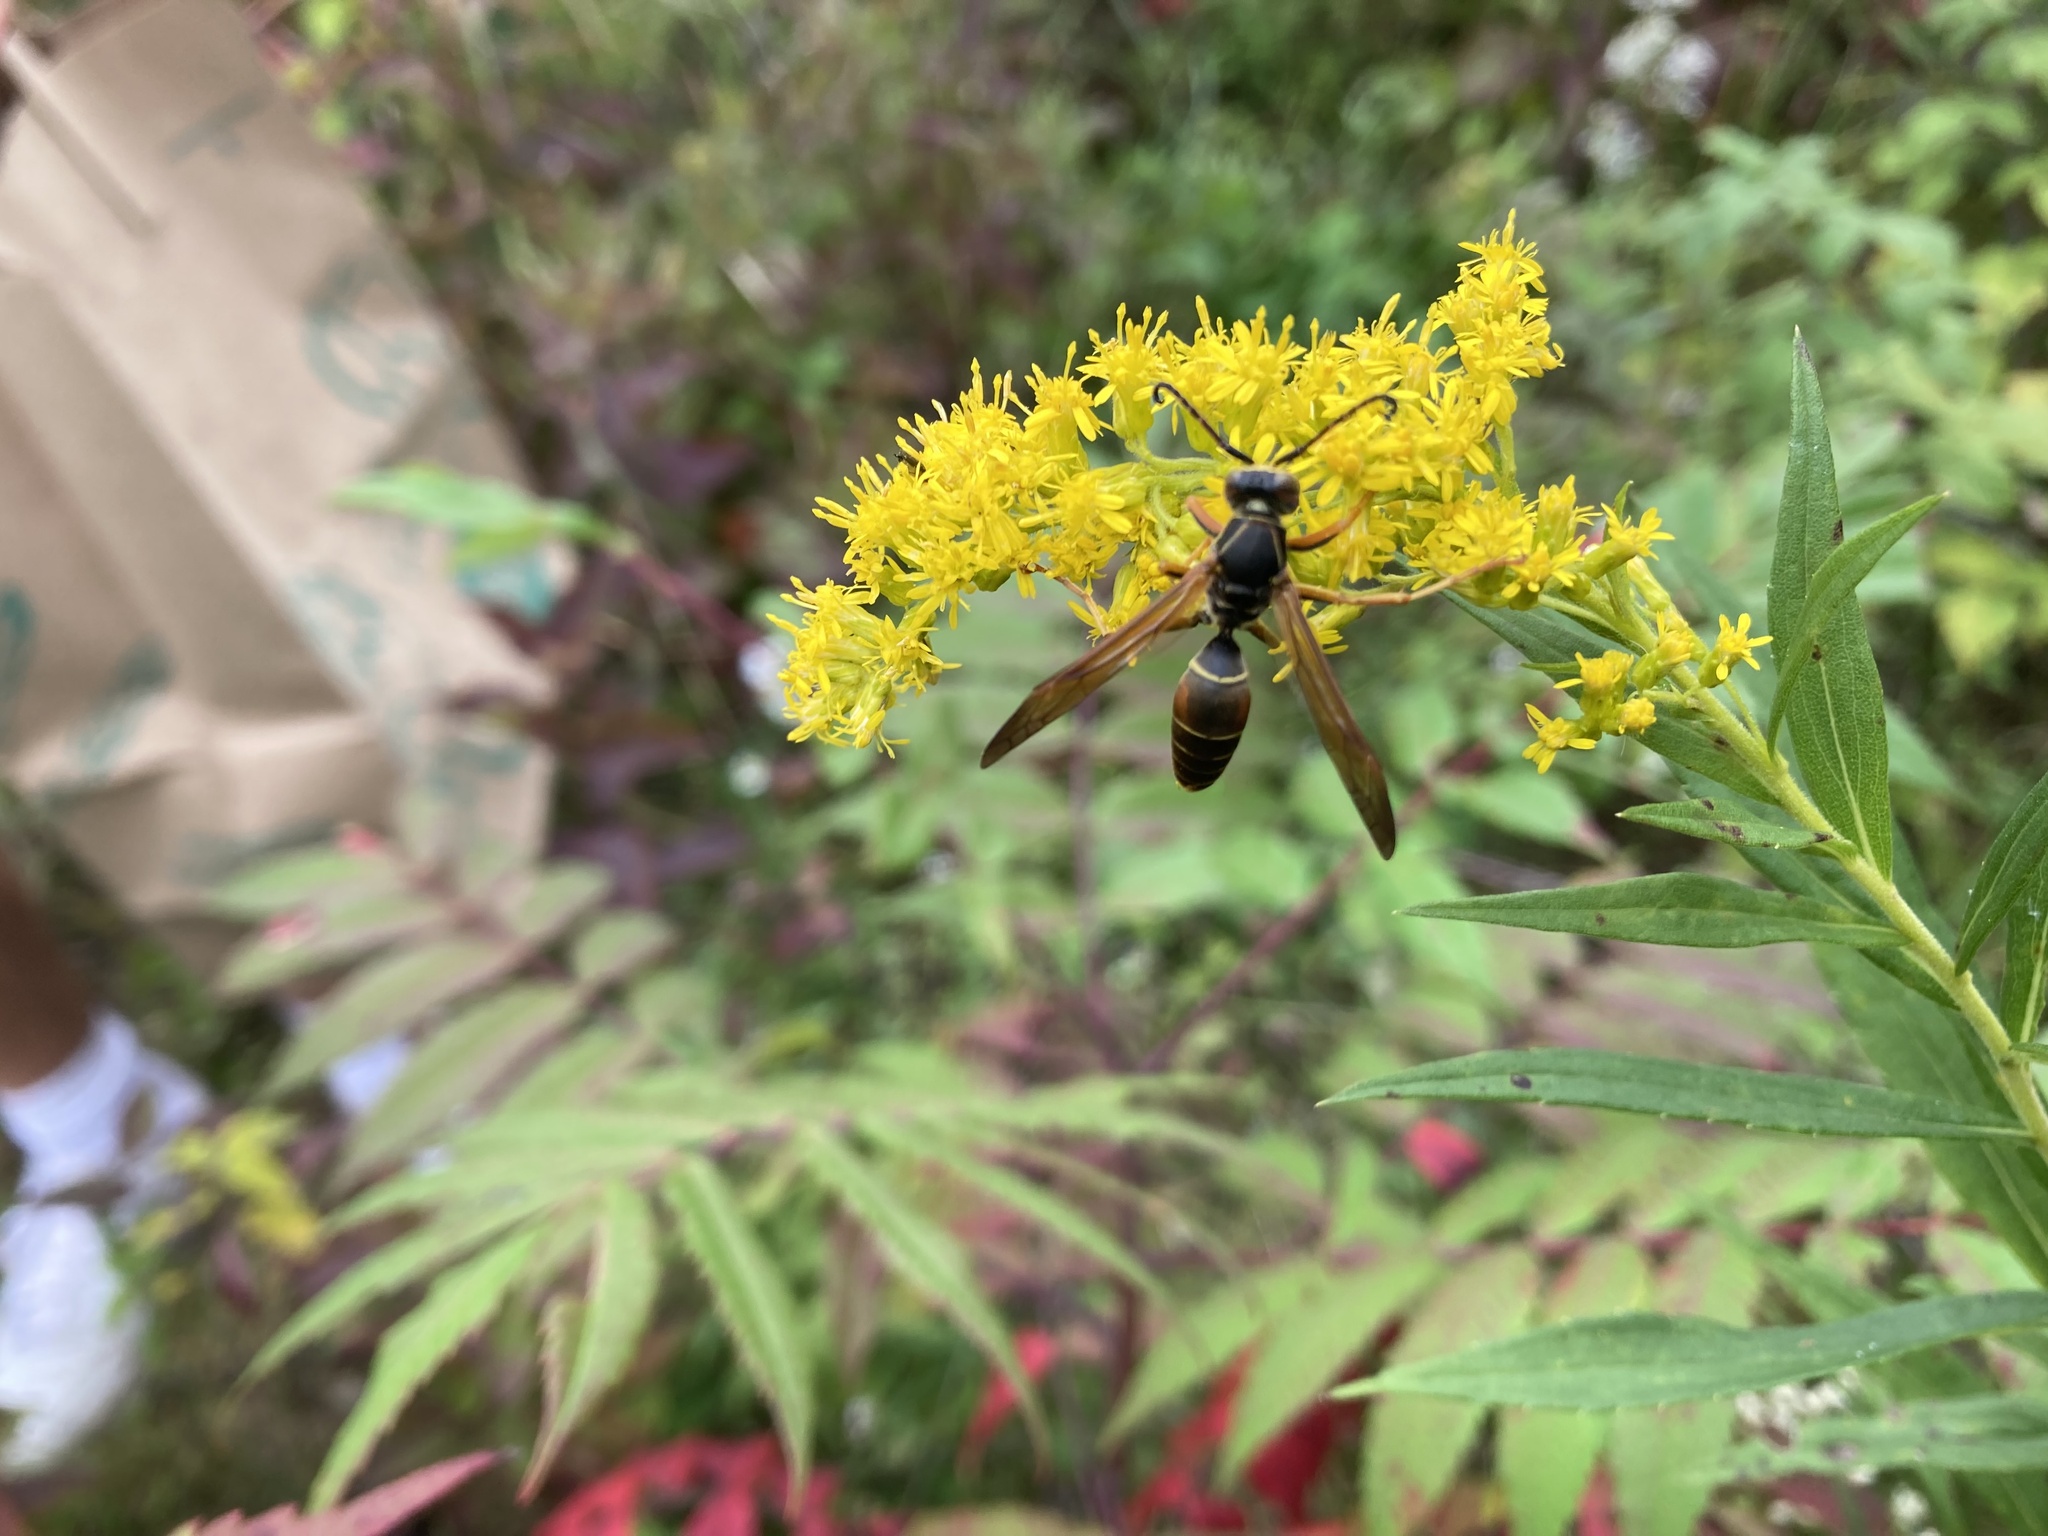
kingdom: Animalia
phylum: Arthropoda
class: Insecta
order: Hymenoptera
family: Eumenidae
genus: Polistes
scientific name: Polistes fuscatus
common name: Dark paper wasp
